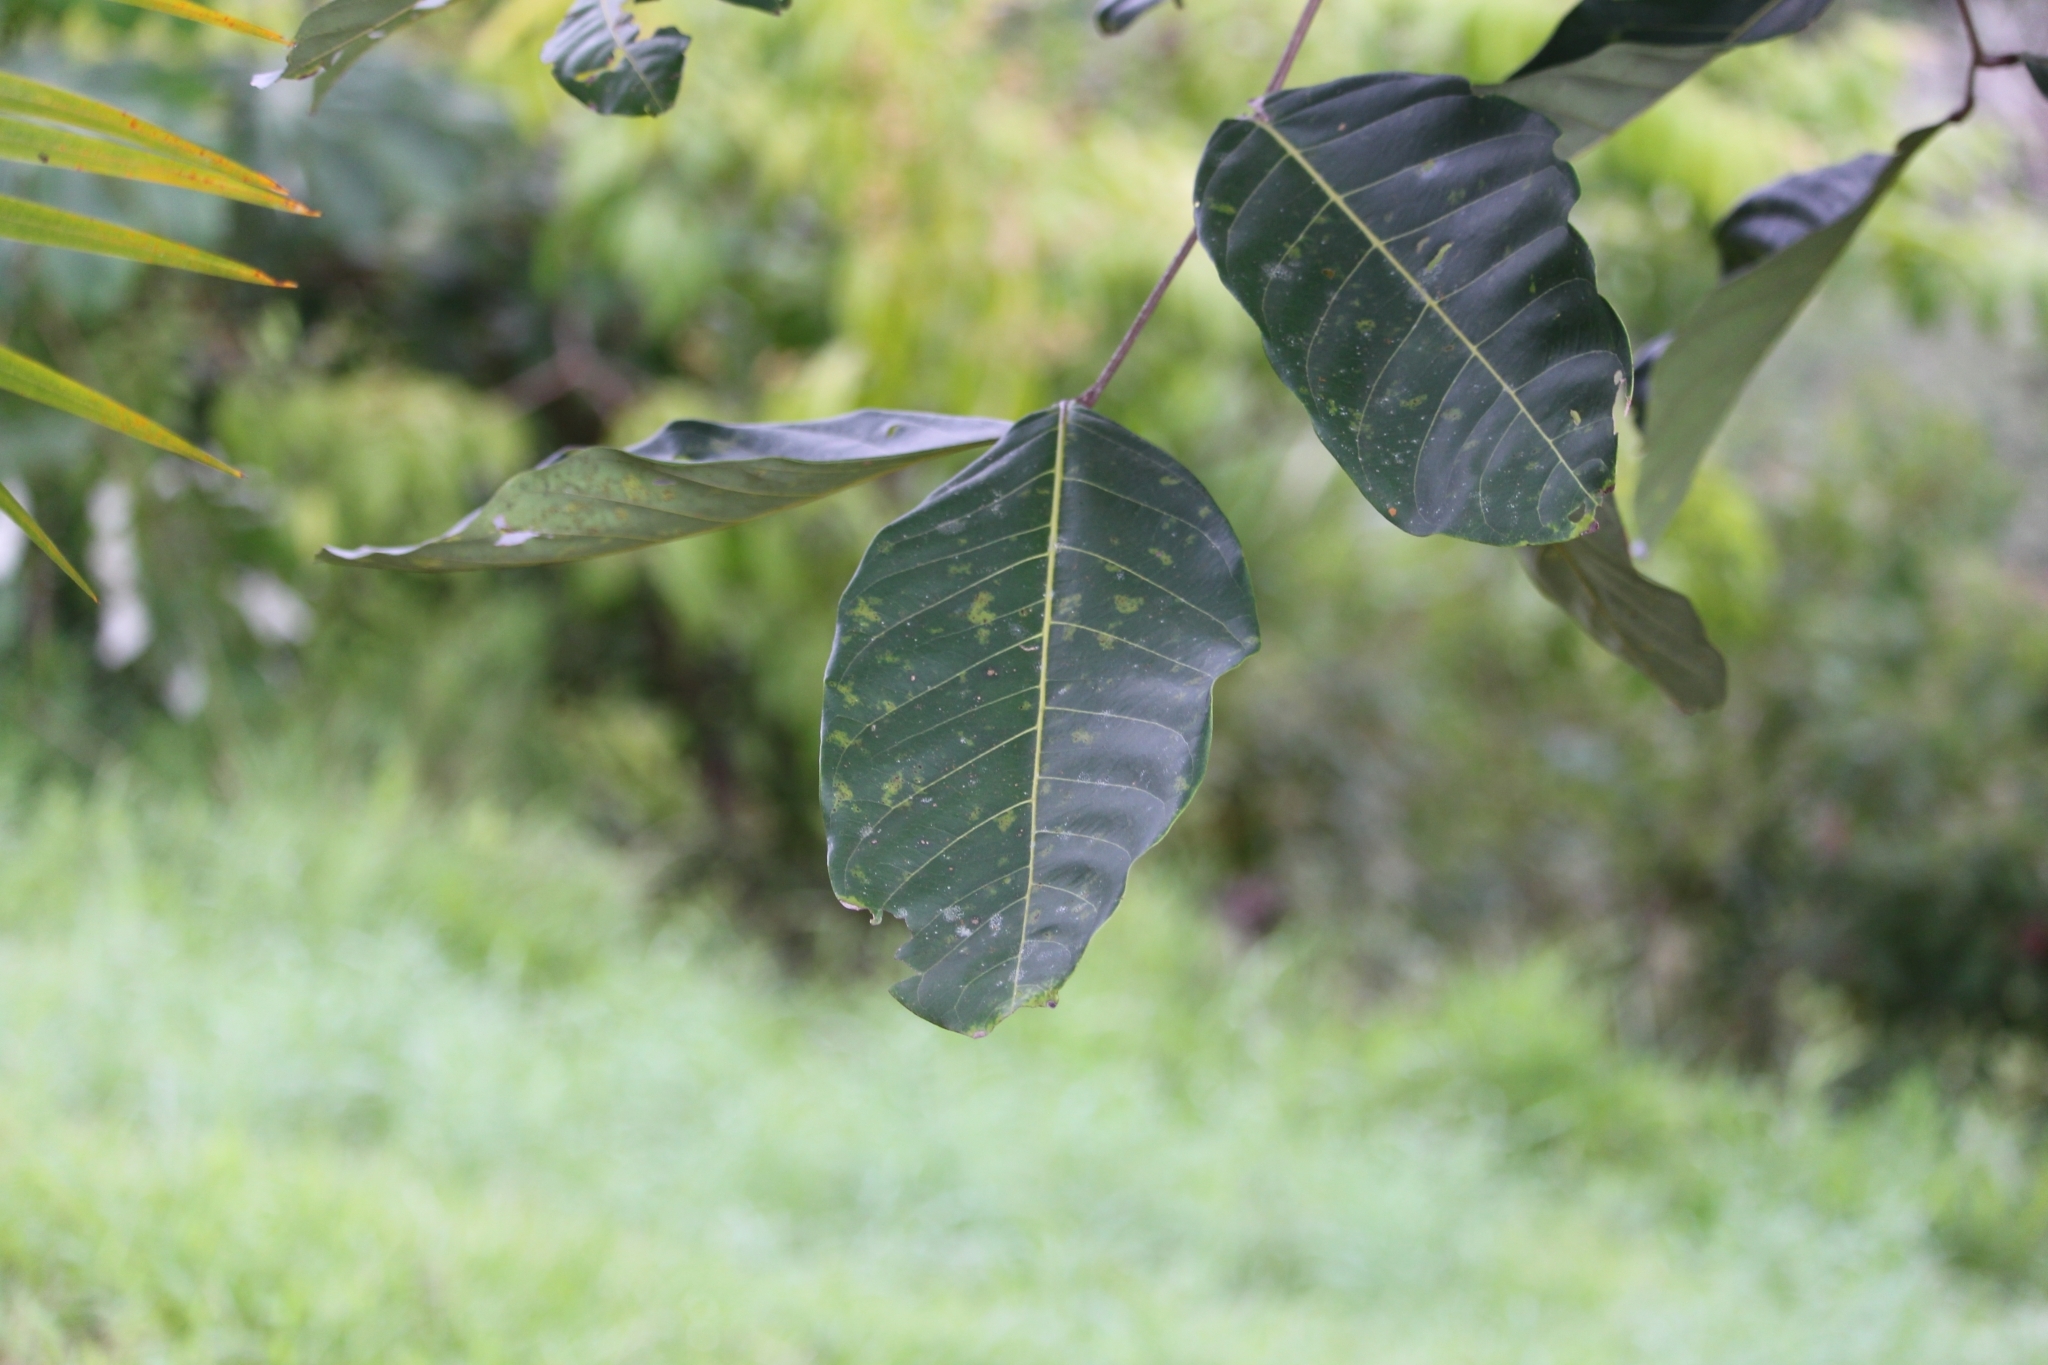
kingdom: Plantae
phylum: Tracheophyta
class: Magnoliopsida
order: Sapindales
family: Sapindaceae
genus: Nephelium
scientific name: Nephelium lappaceum
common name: Rambutan
